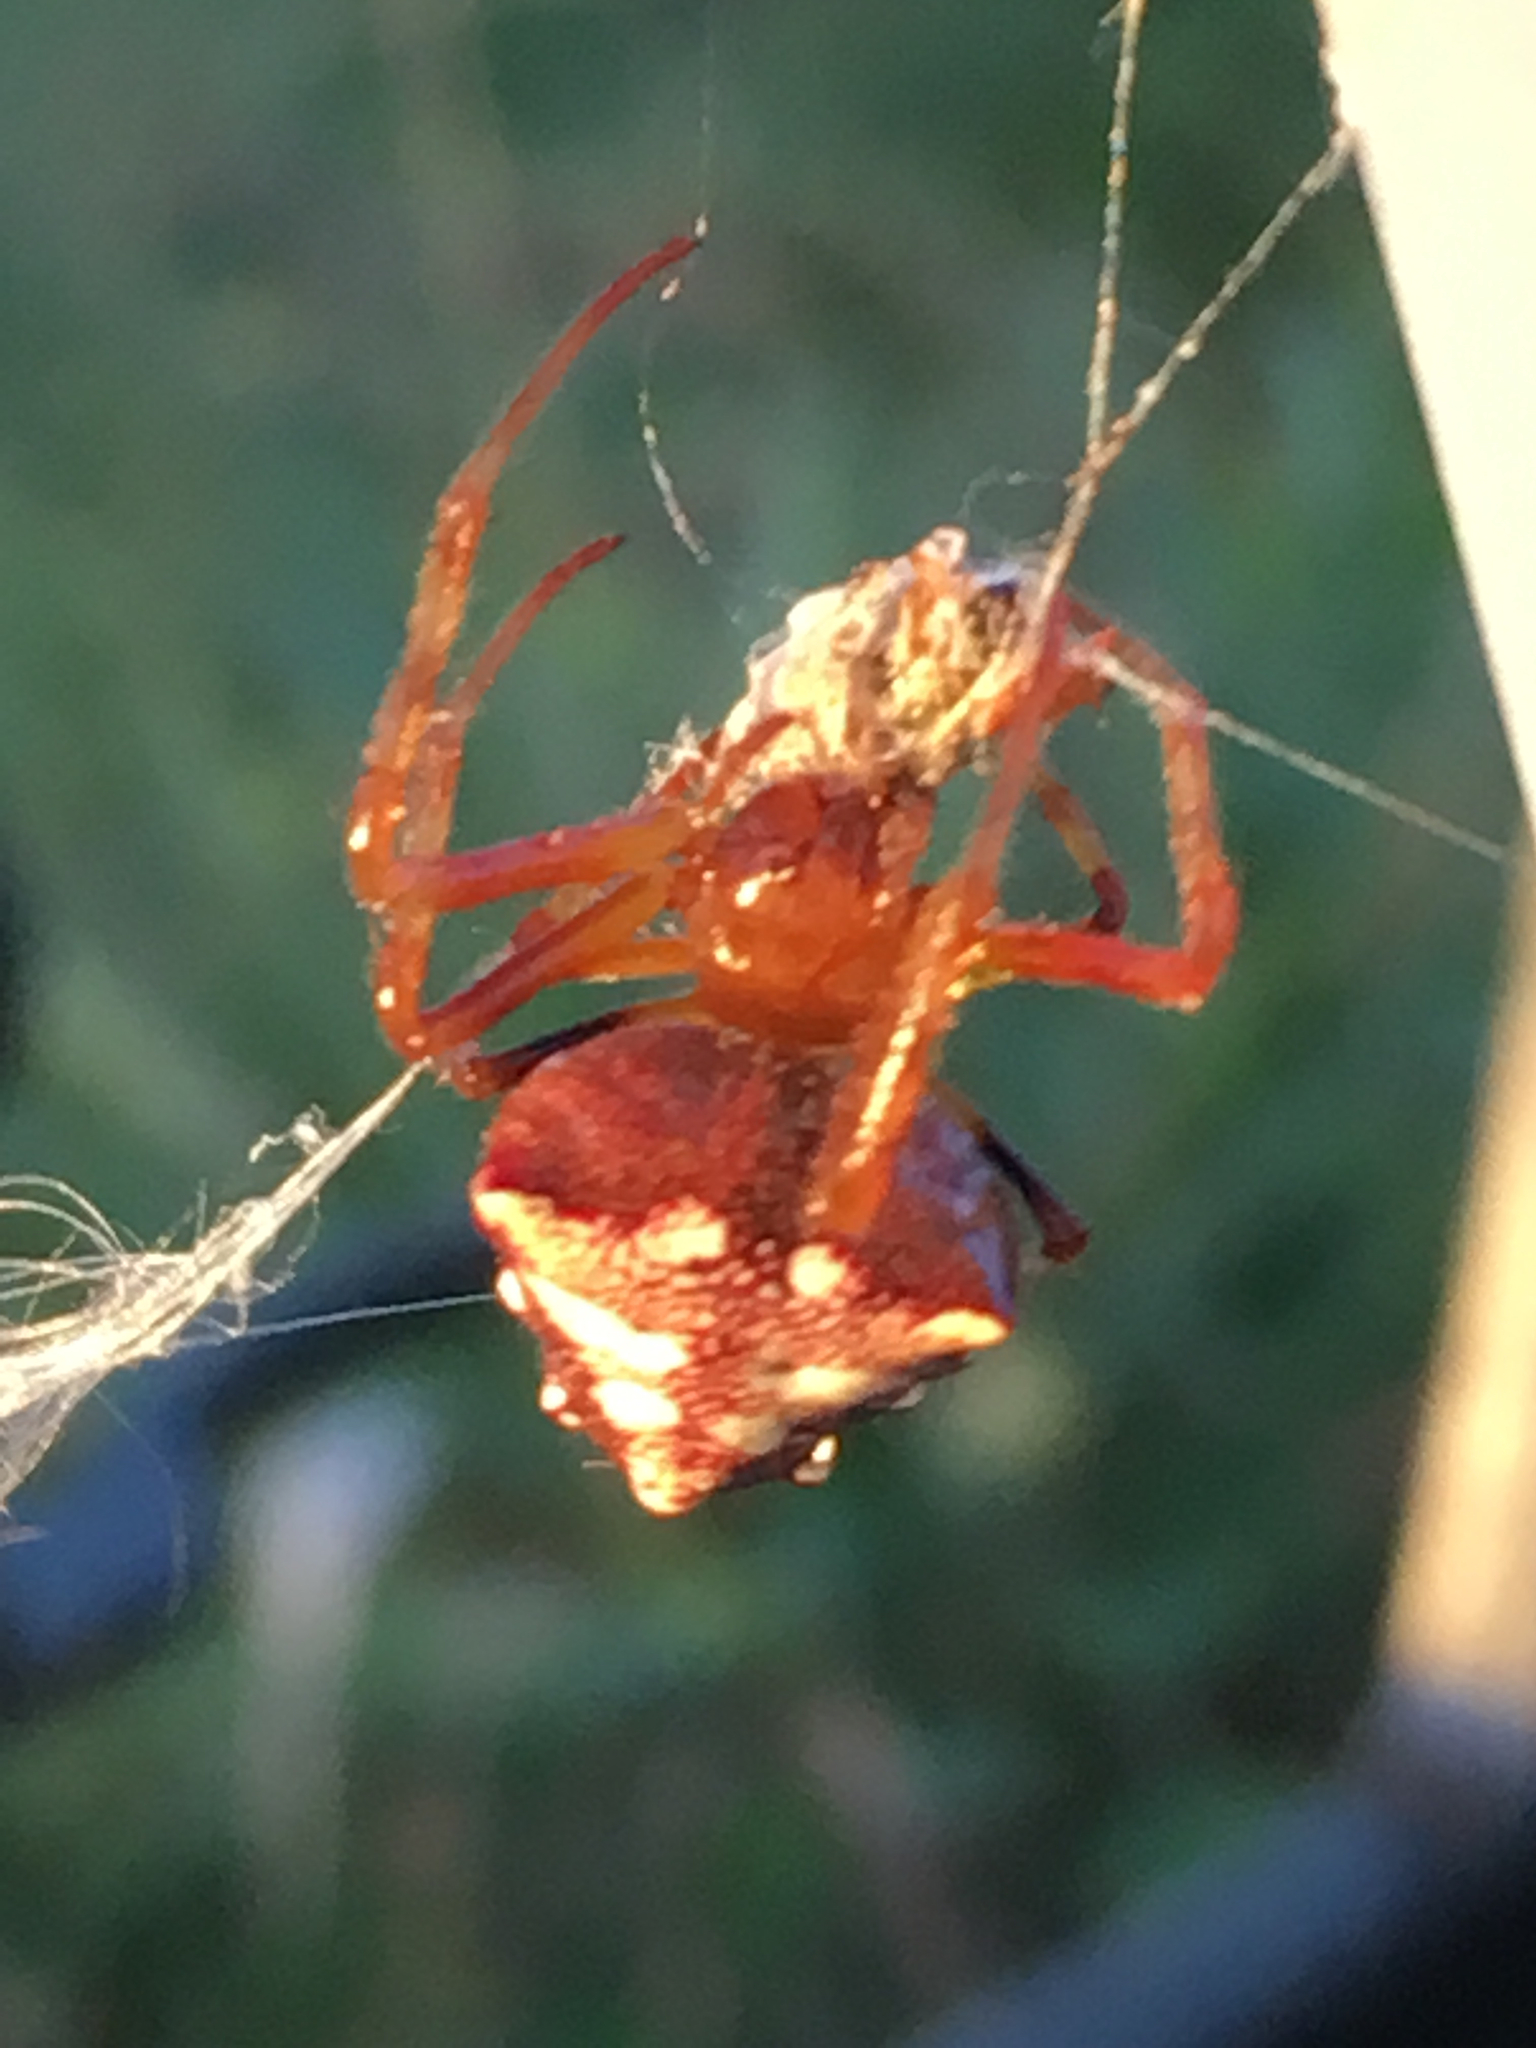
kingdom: Animalia
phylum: Arthropoda
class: Arachnida
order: Araneae
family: Araneidae
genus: Verrucosa
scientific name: Verrucosa arenata
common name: Orb weavers
